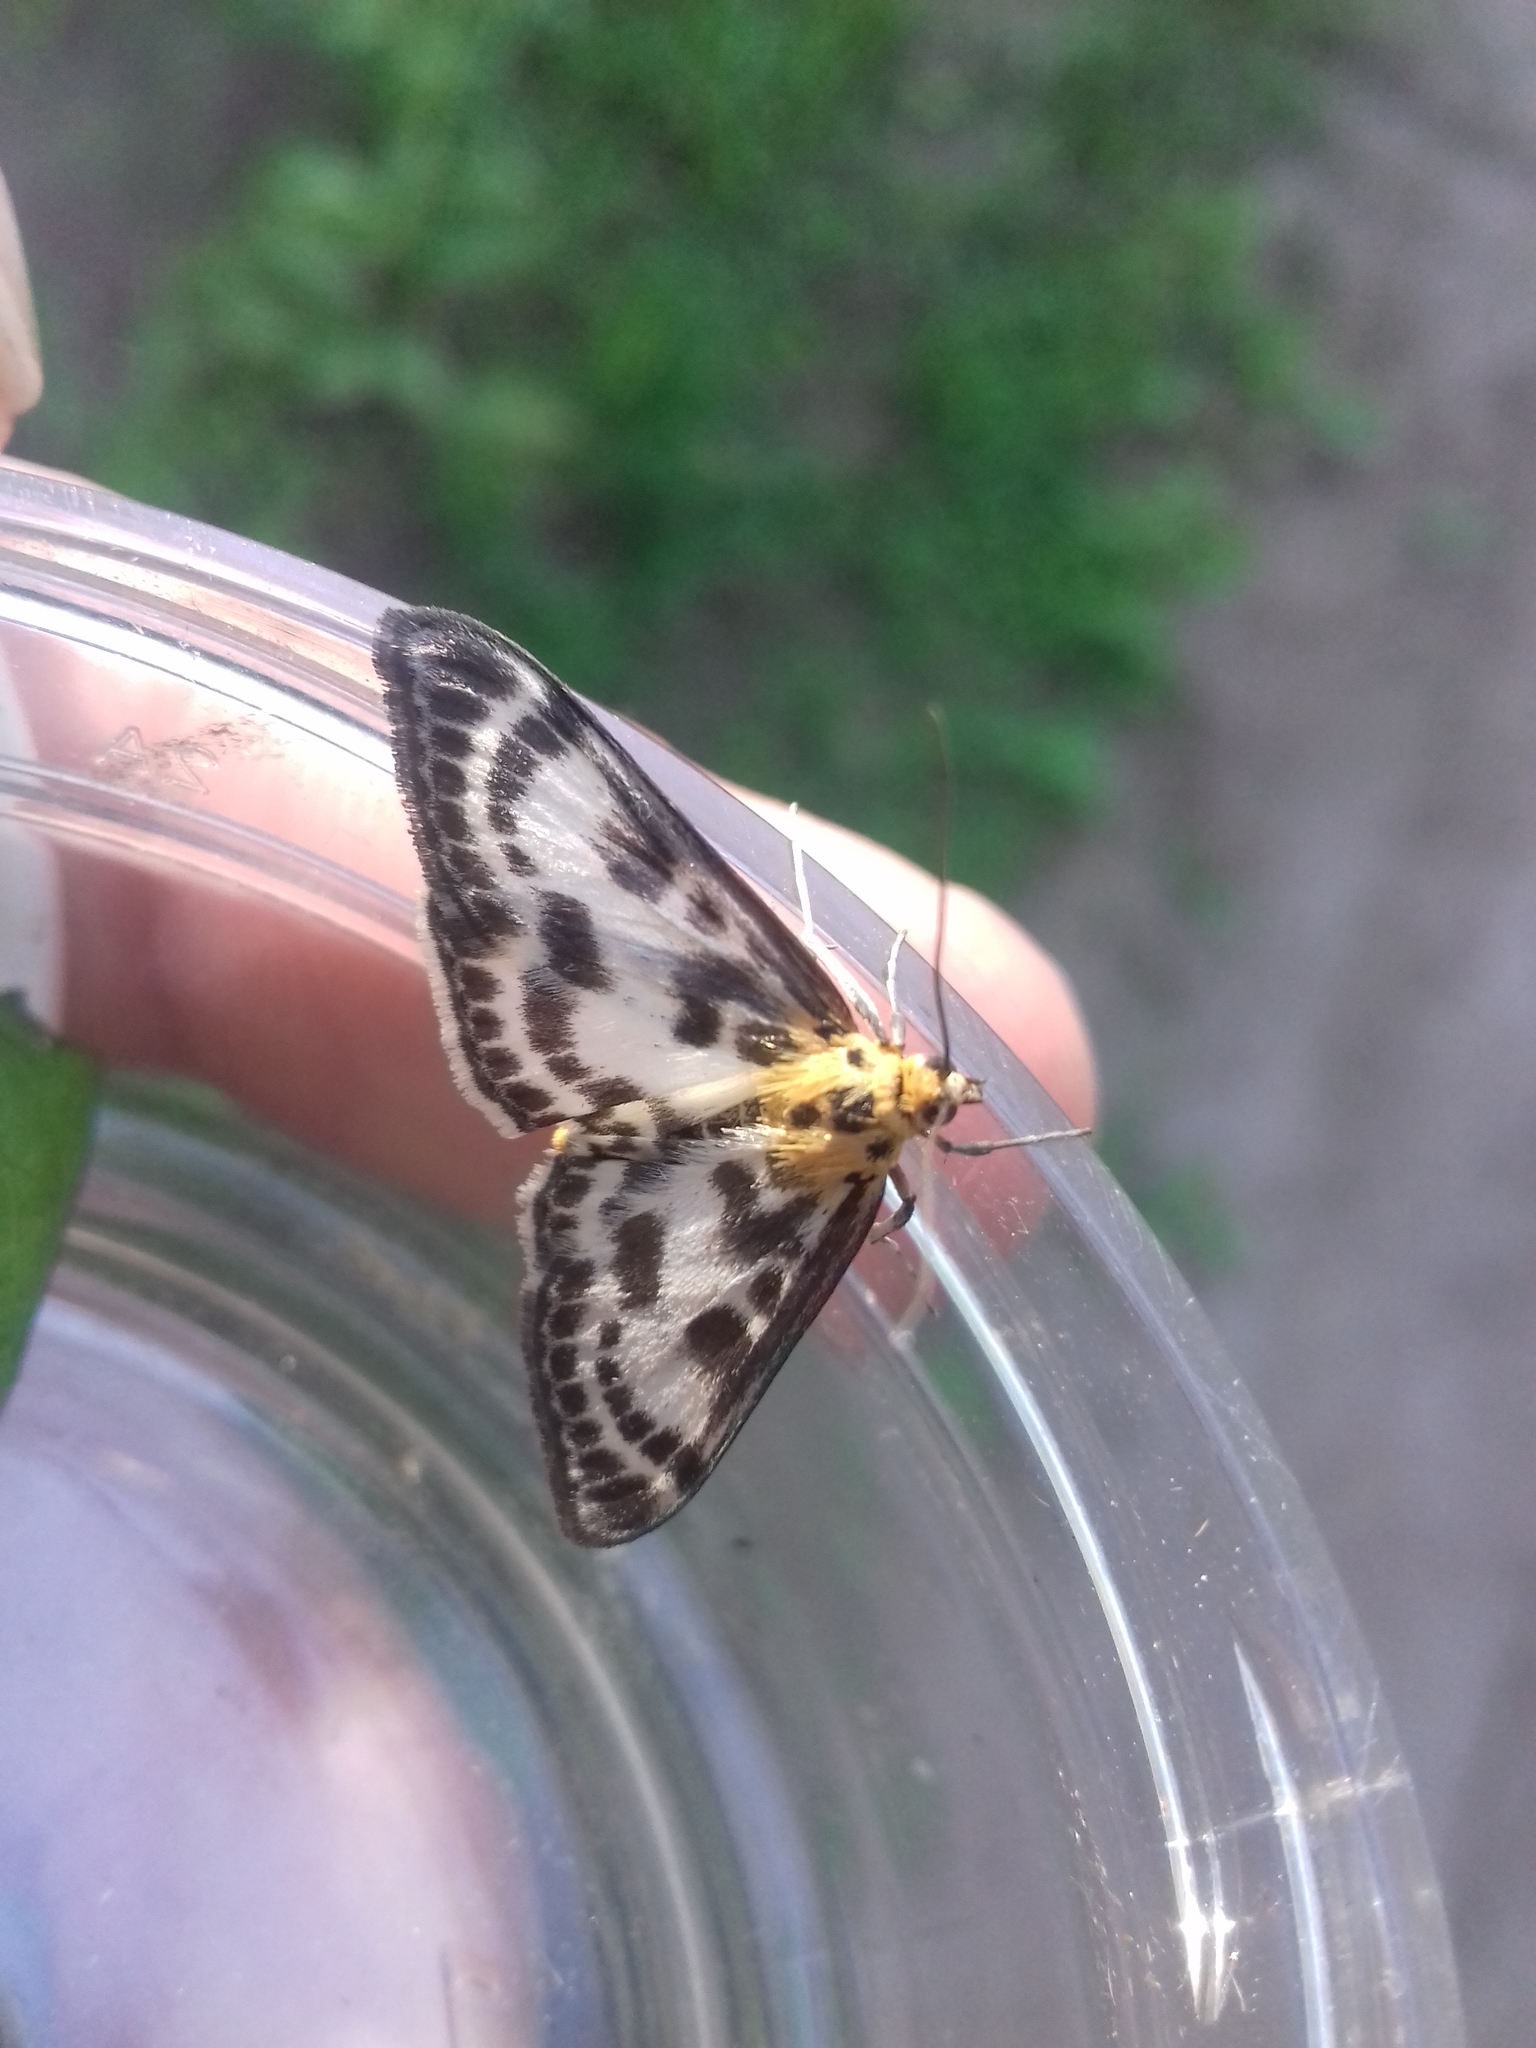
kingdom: Animalia
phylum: Arthropoda
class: Insecta
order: Lepidoptera
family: Crambidae
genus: Anania
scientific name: Anania hortulata
